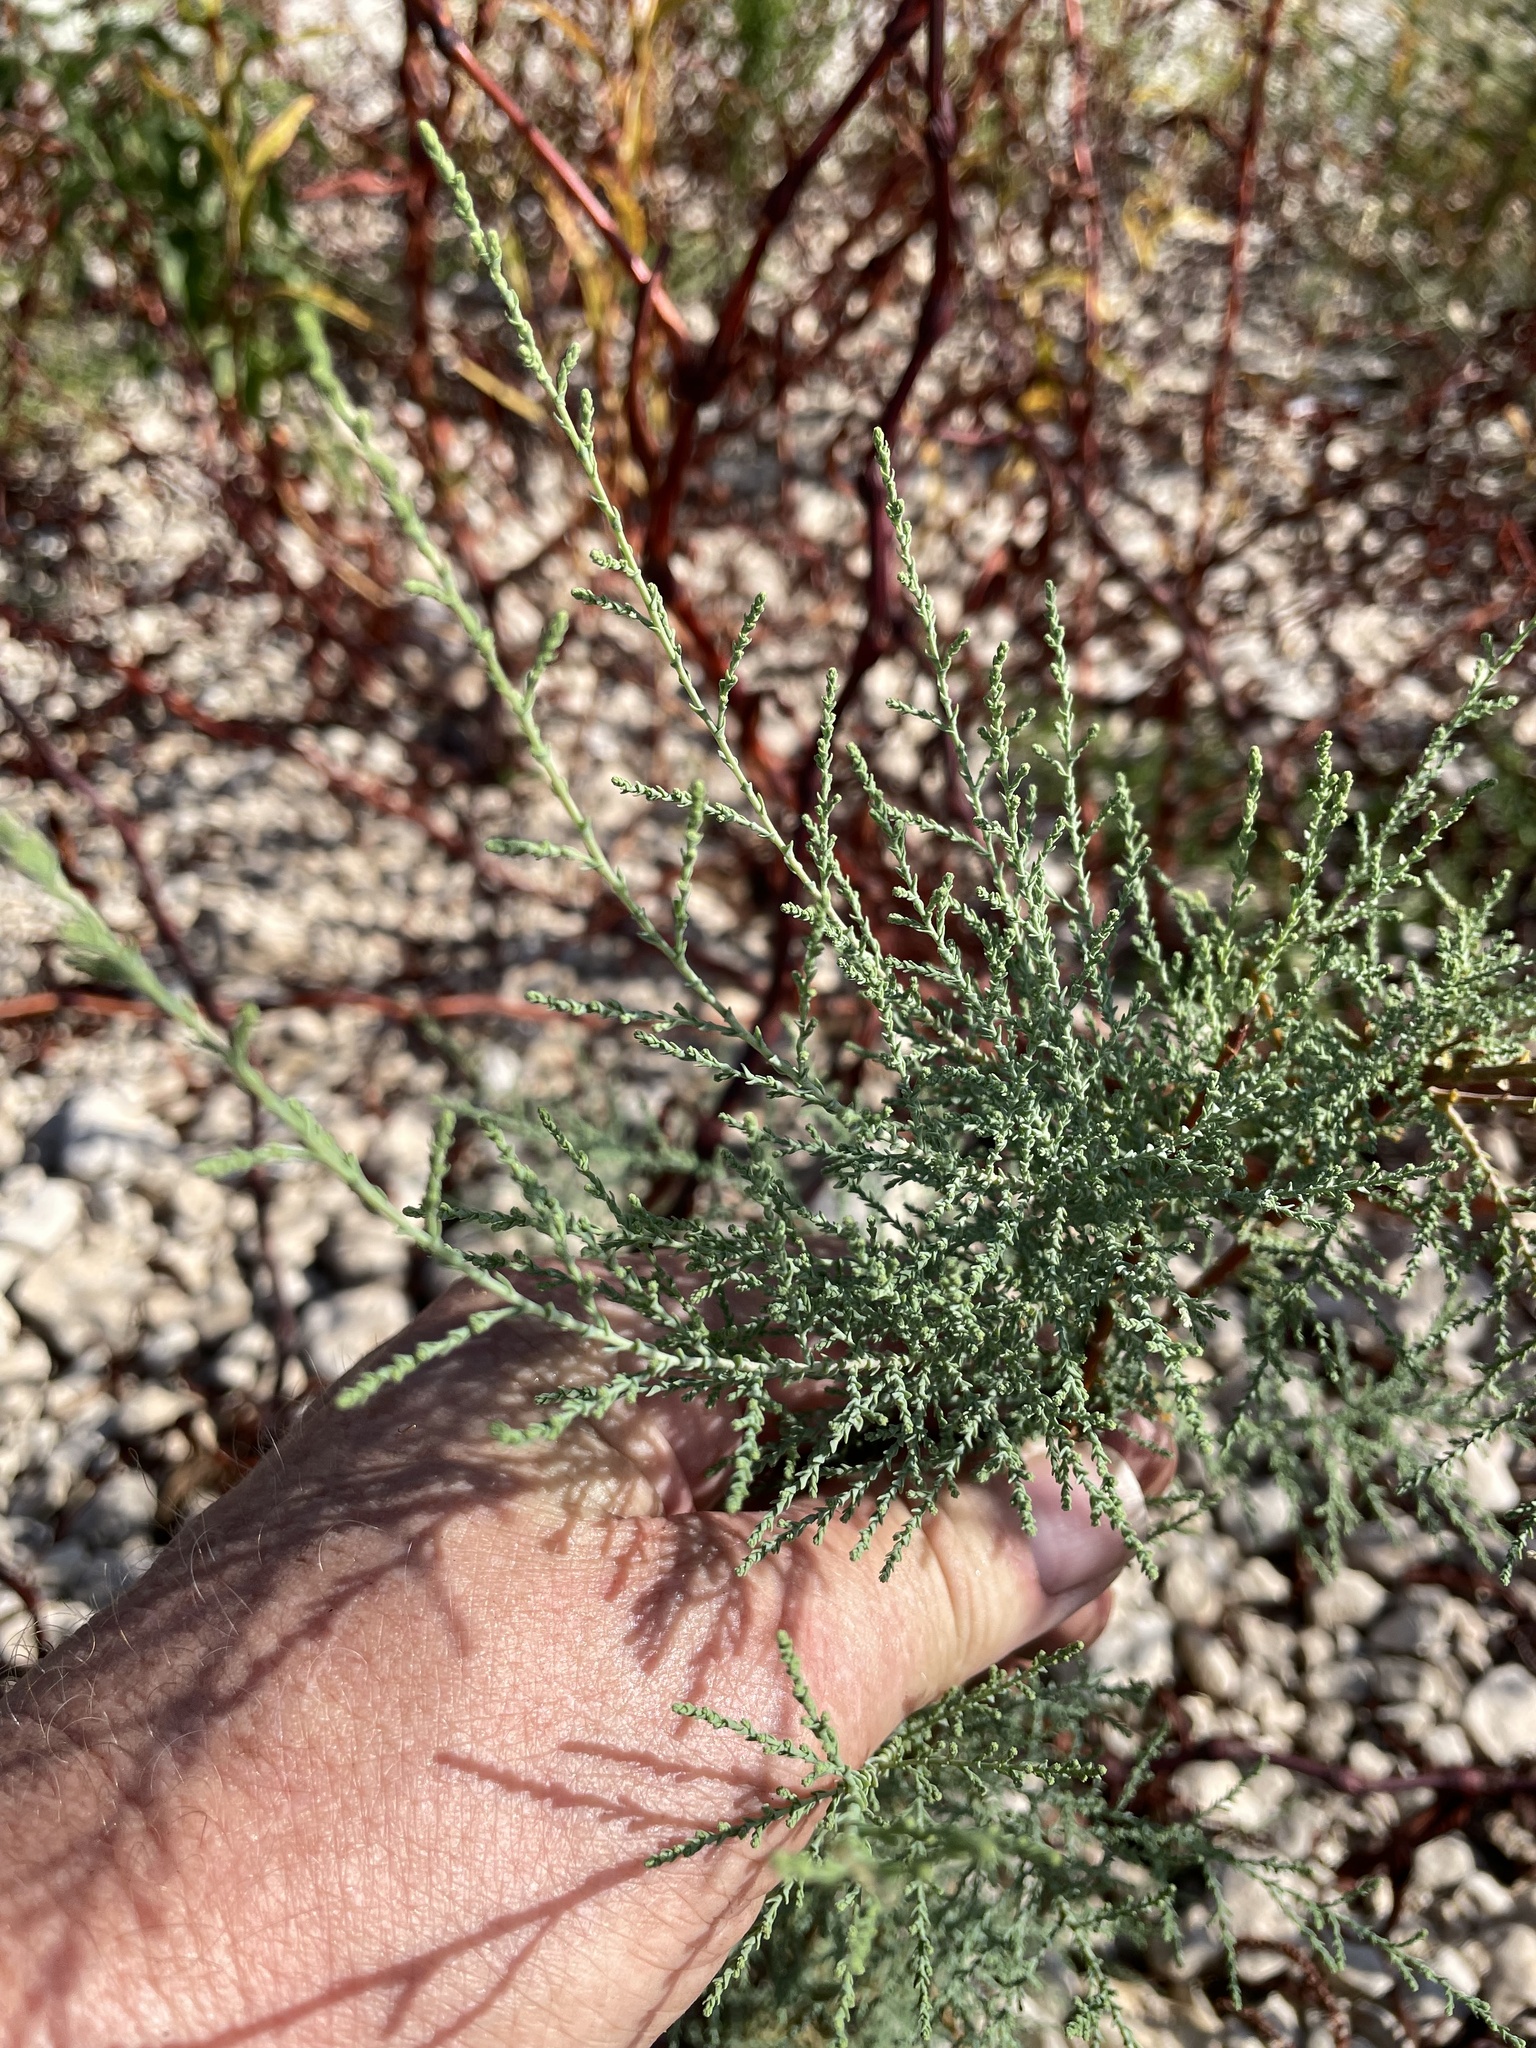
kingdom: Plantae
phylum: Tracheophyta
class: Magnoliopsida
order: Caryophyllales
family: Tamaricaceae
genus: Tamarix
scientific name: Tamarix ramosissima
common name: Pink tamarisk
